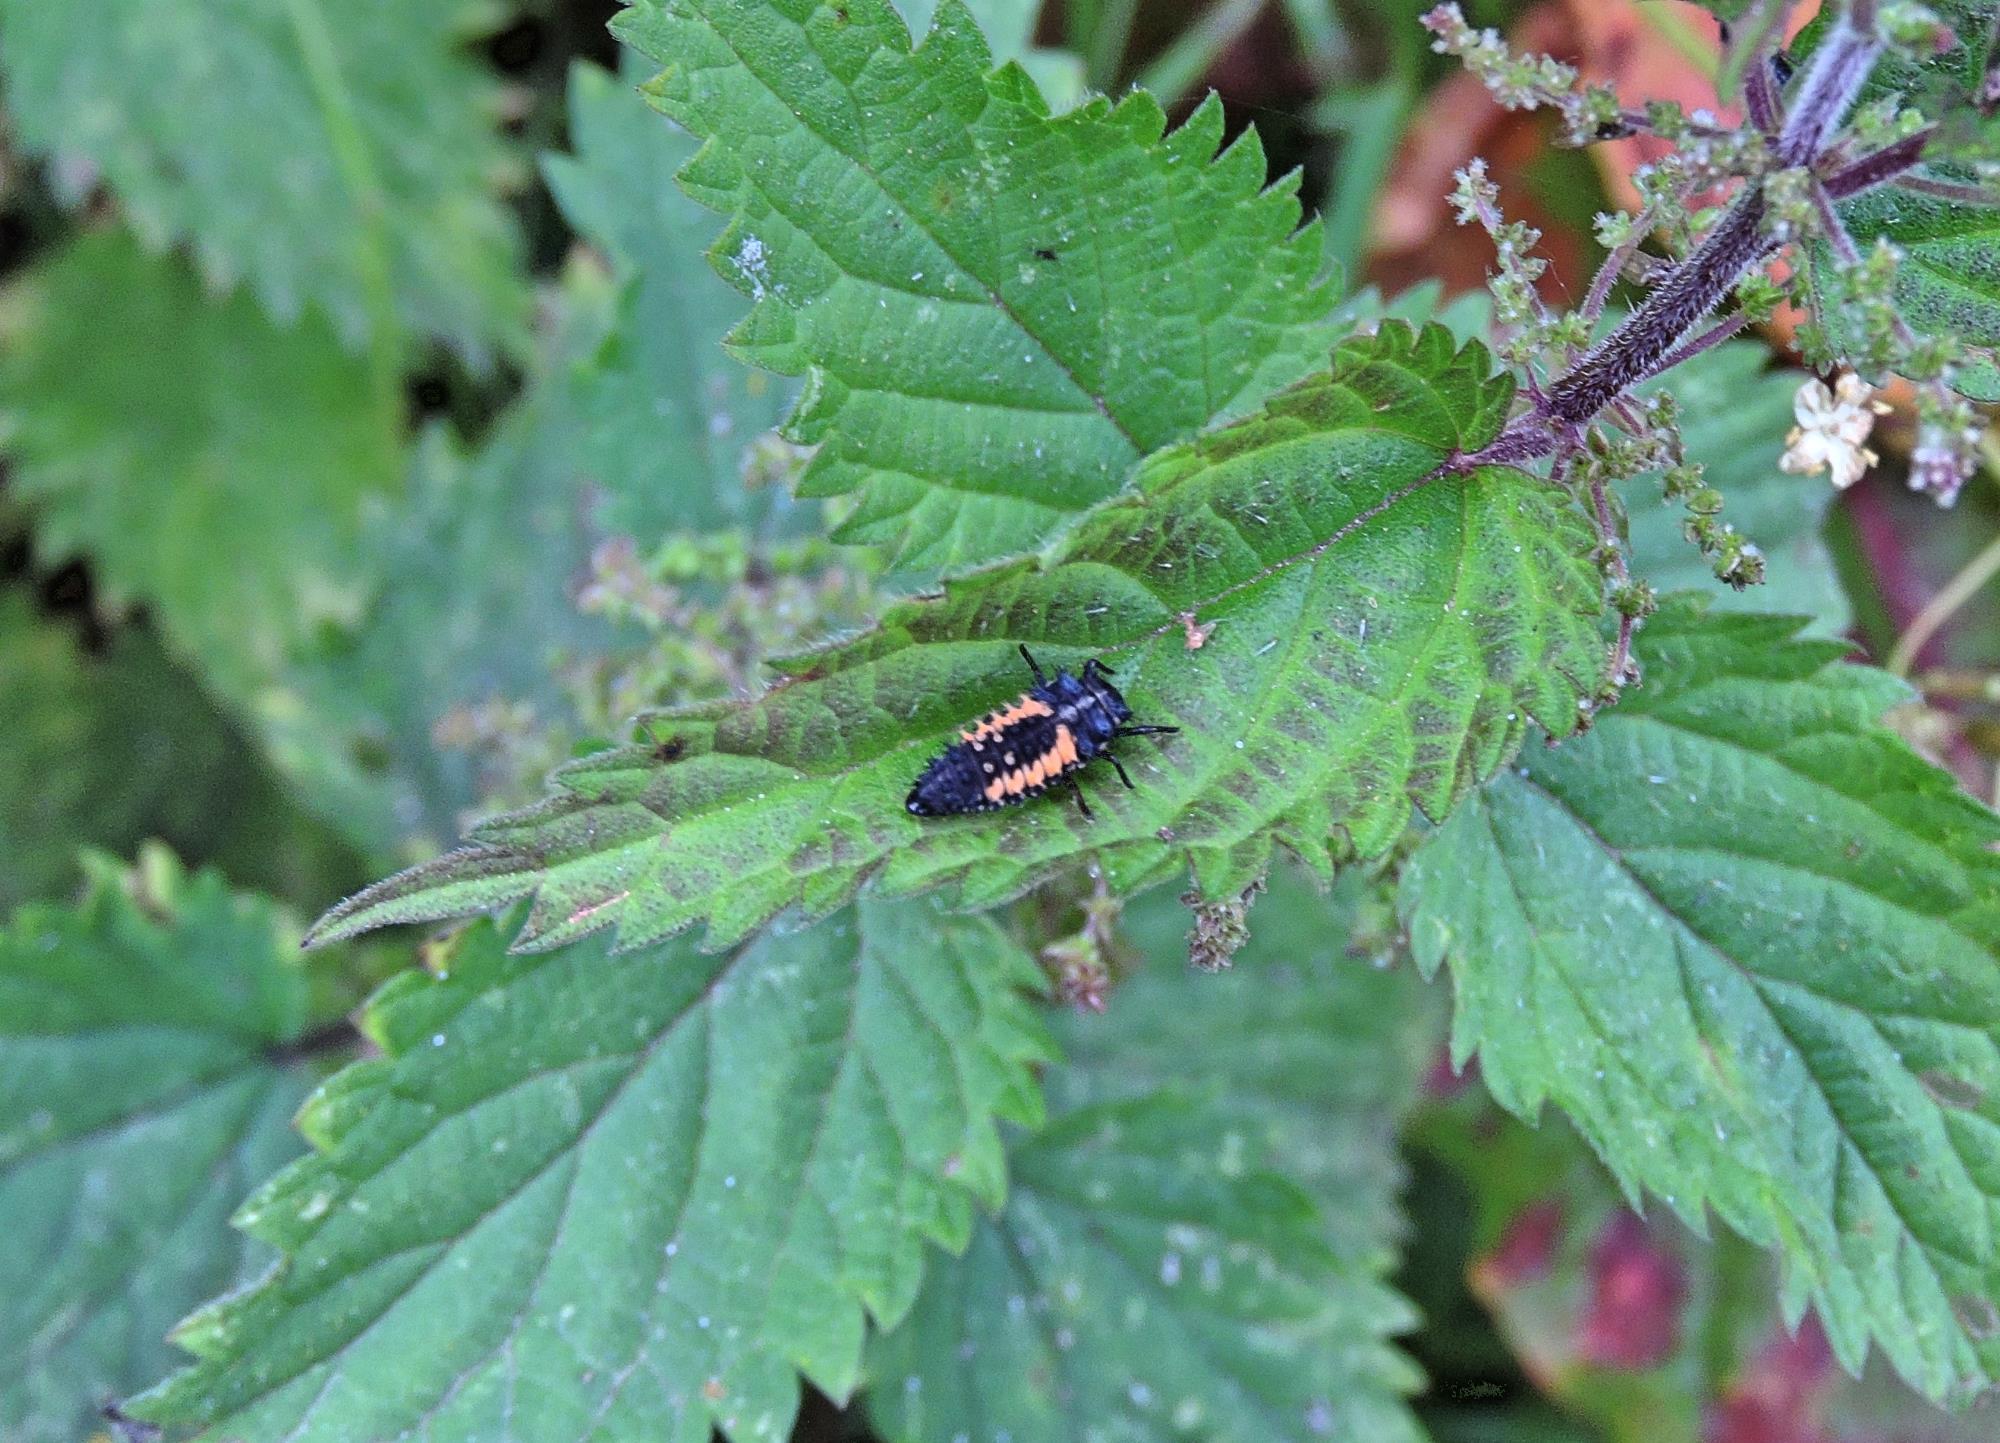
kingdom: Animalia
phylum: Arthropoda
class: Insecta
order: Coleoptera
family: Coccinellidae
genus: Harmonia
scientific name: Harmonia axyridis
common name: Harlequin ladybird
